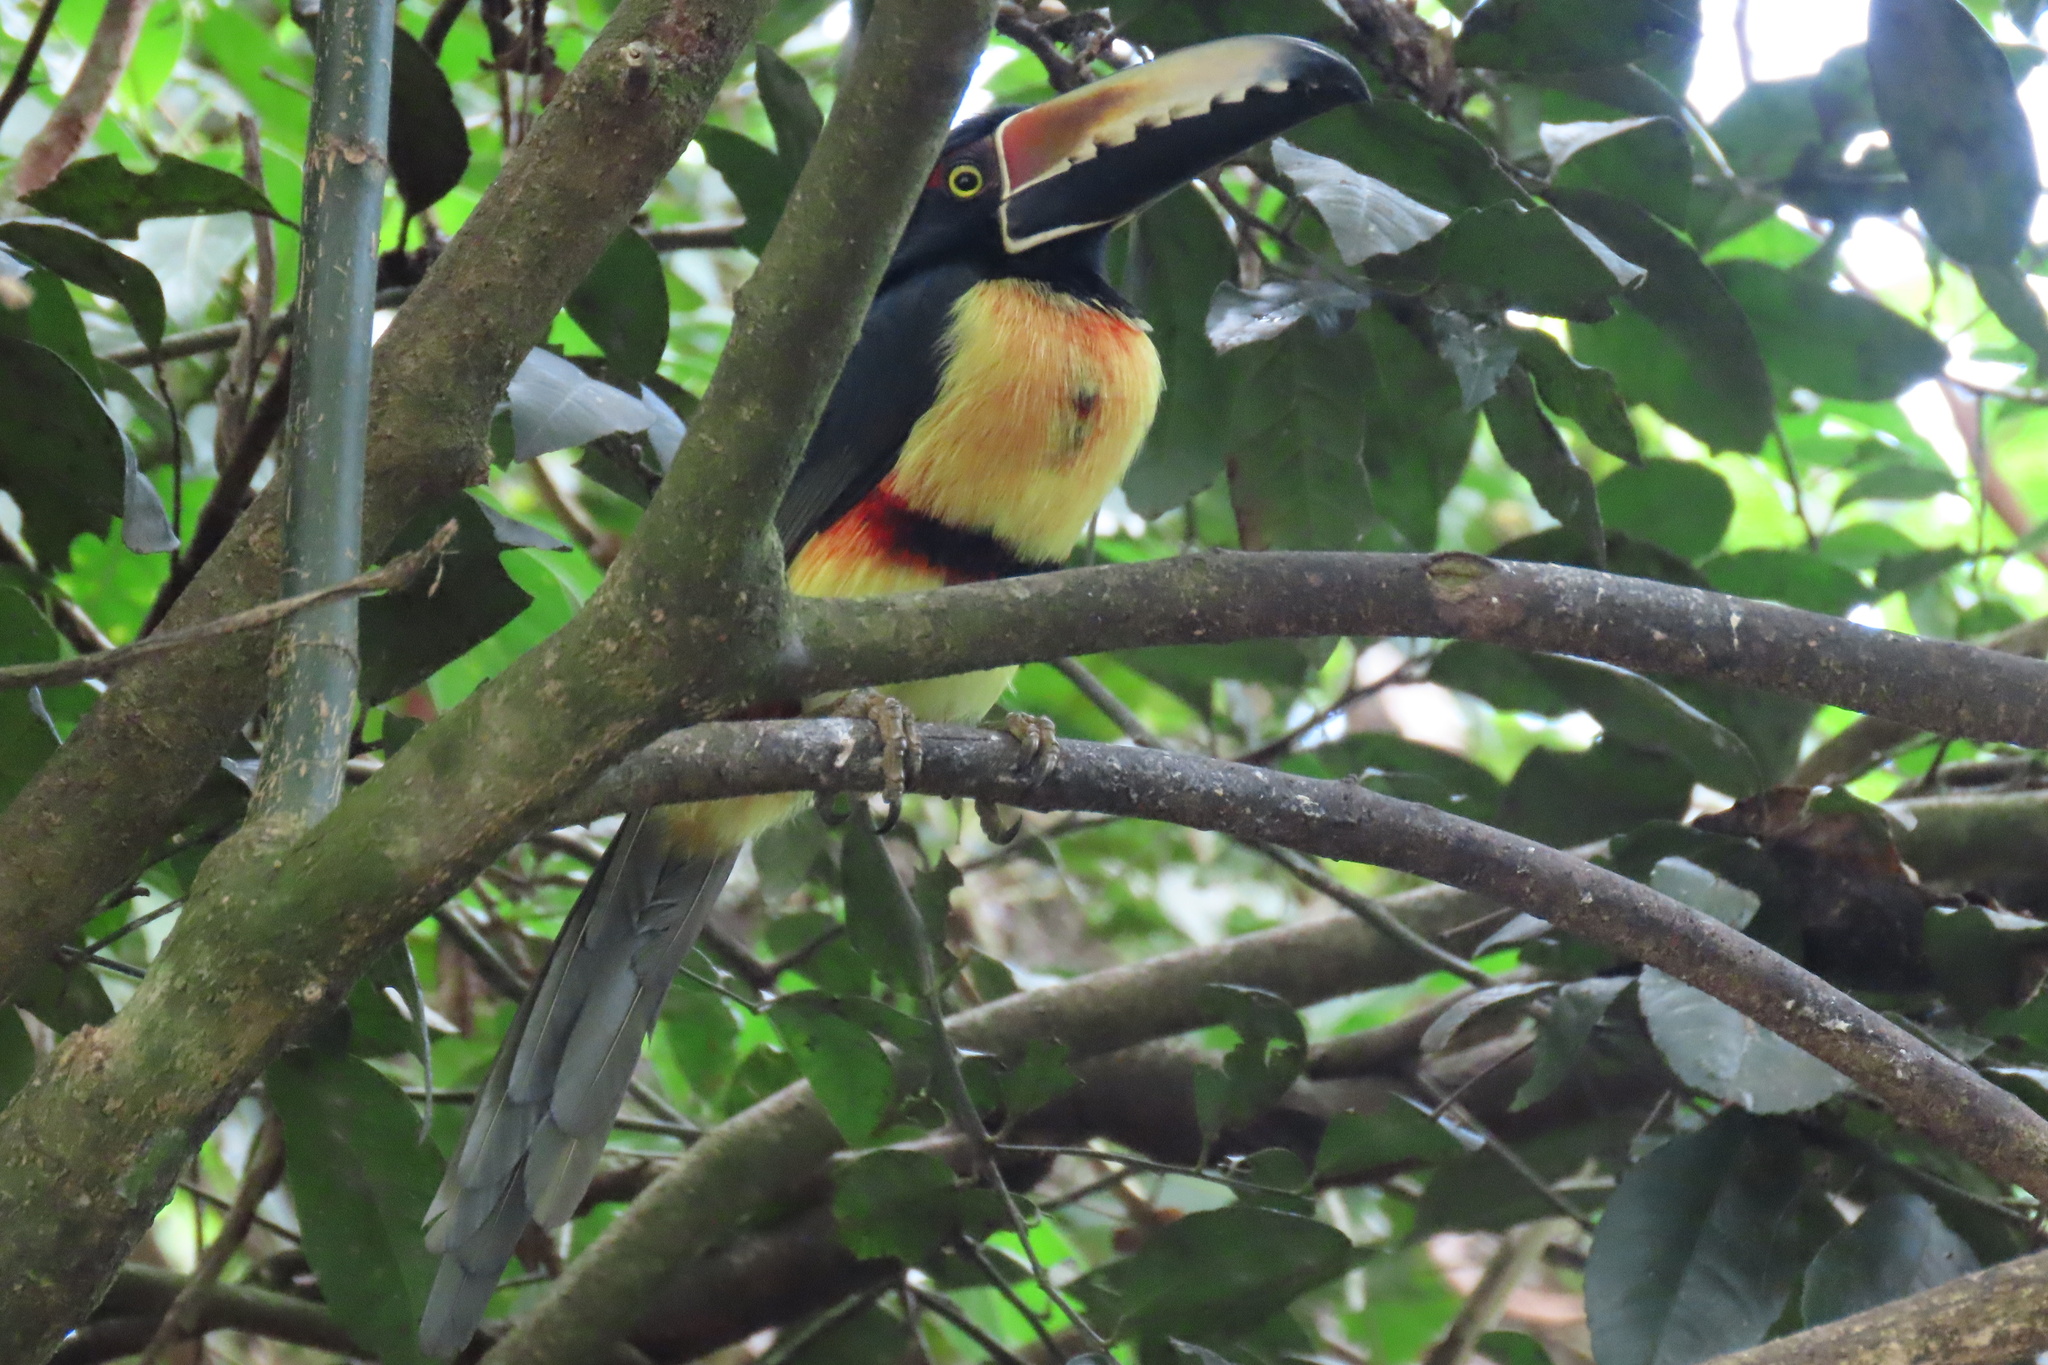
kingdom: Animalia
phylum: Chordata
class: Aves
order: Piciformes
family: Ramphastidae
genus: Pteroglossus
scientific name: Pteroglossus torquatus
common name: Collared aracari
